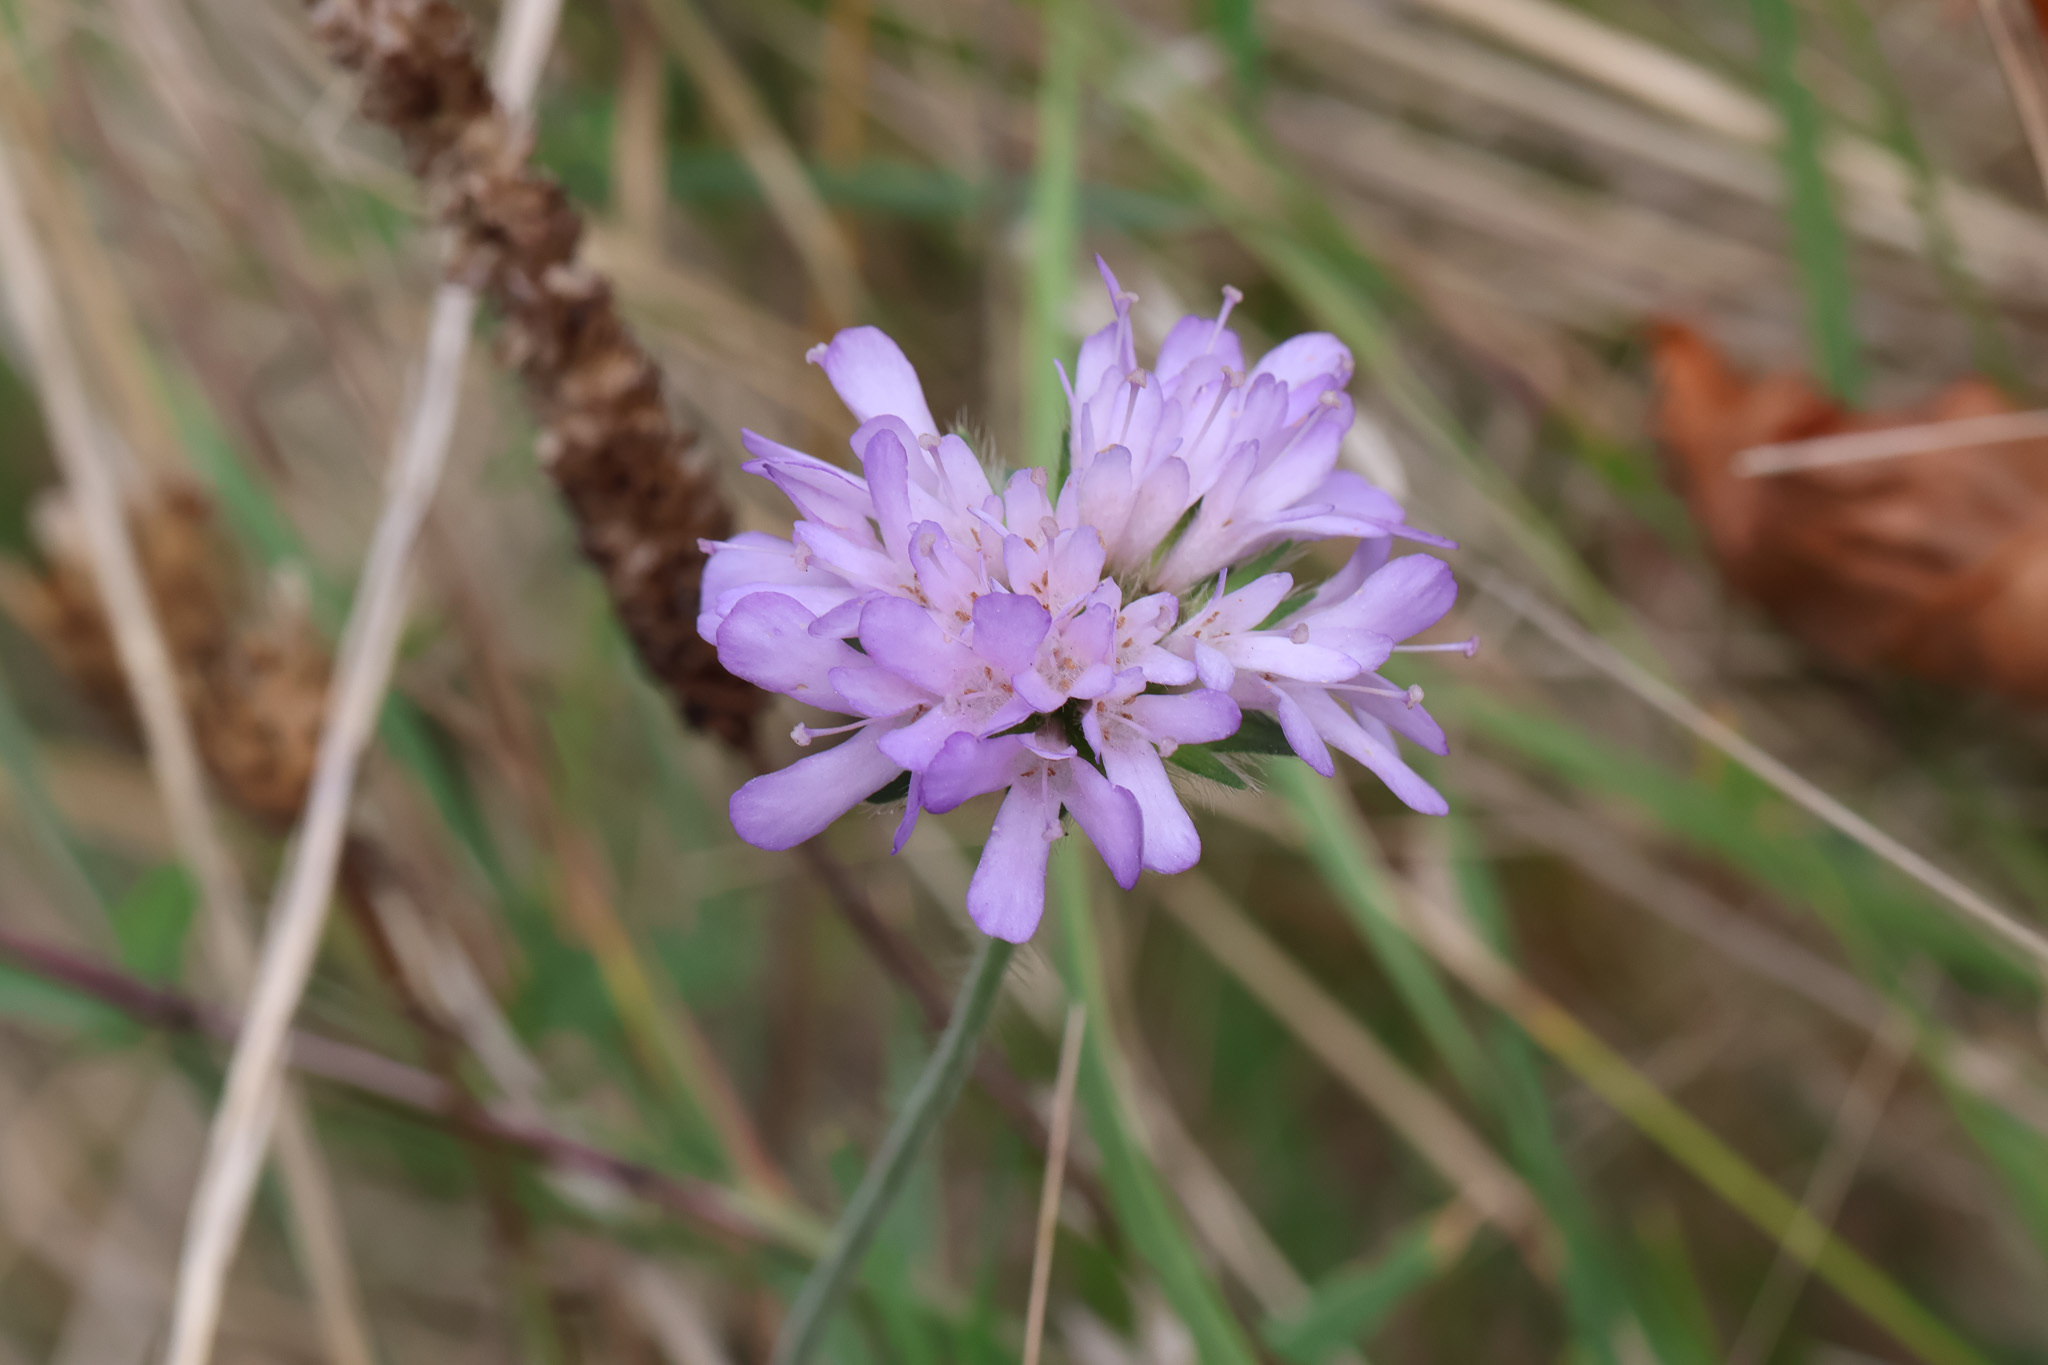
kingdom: Plantae
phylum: Tracheophyta
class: Magnoliopsida
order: Dipsacales
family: Caprifoliaceae
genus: Knautia
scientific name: Knautia arvensis
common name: Field scabiosa
